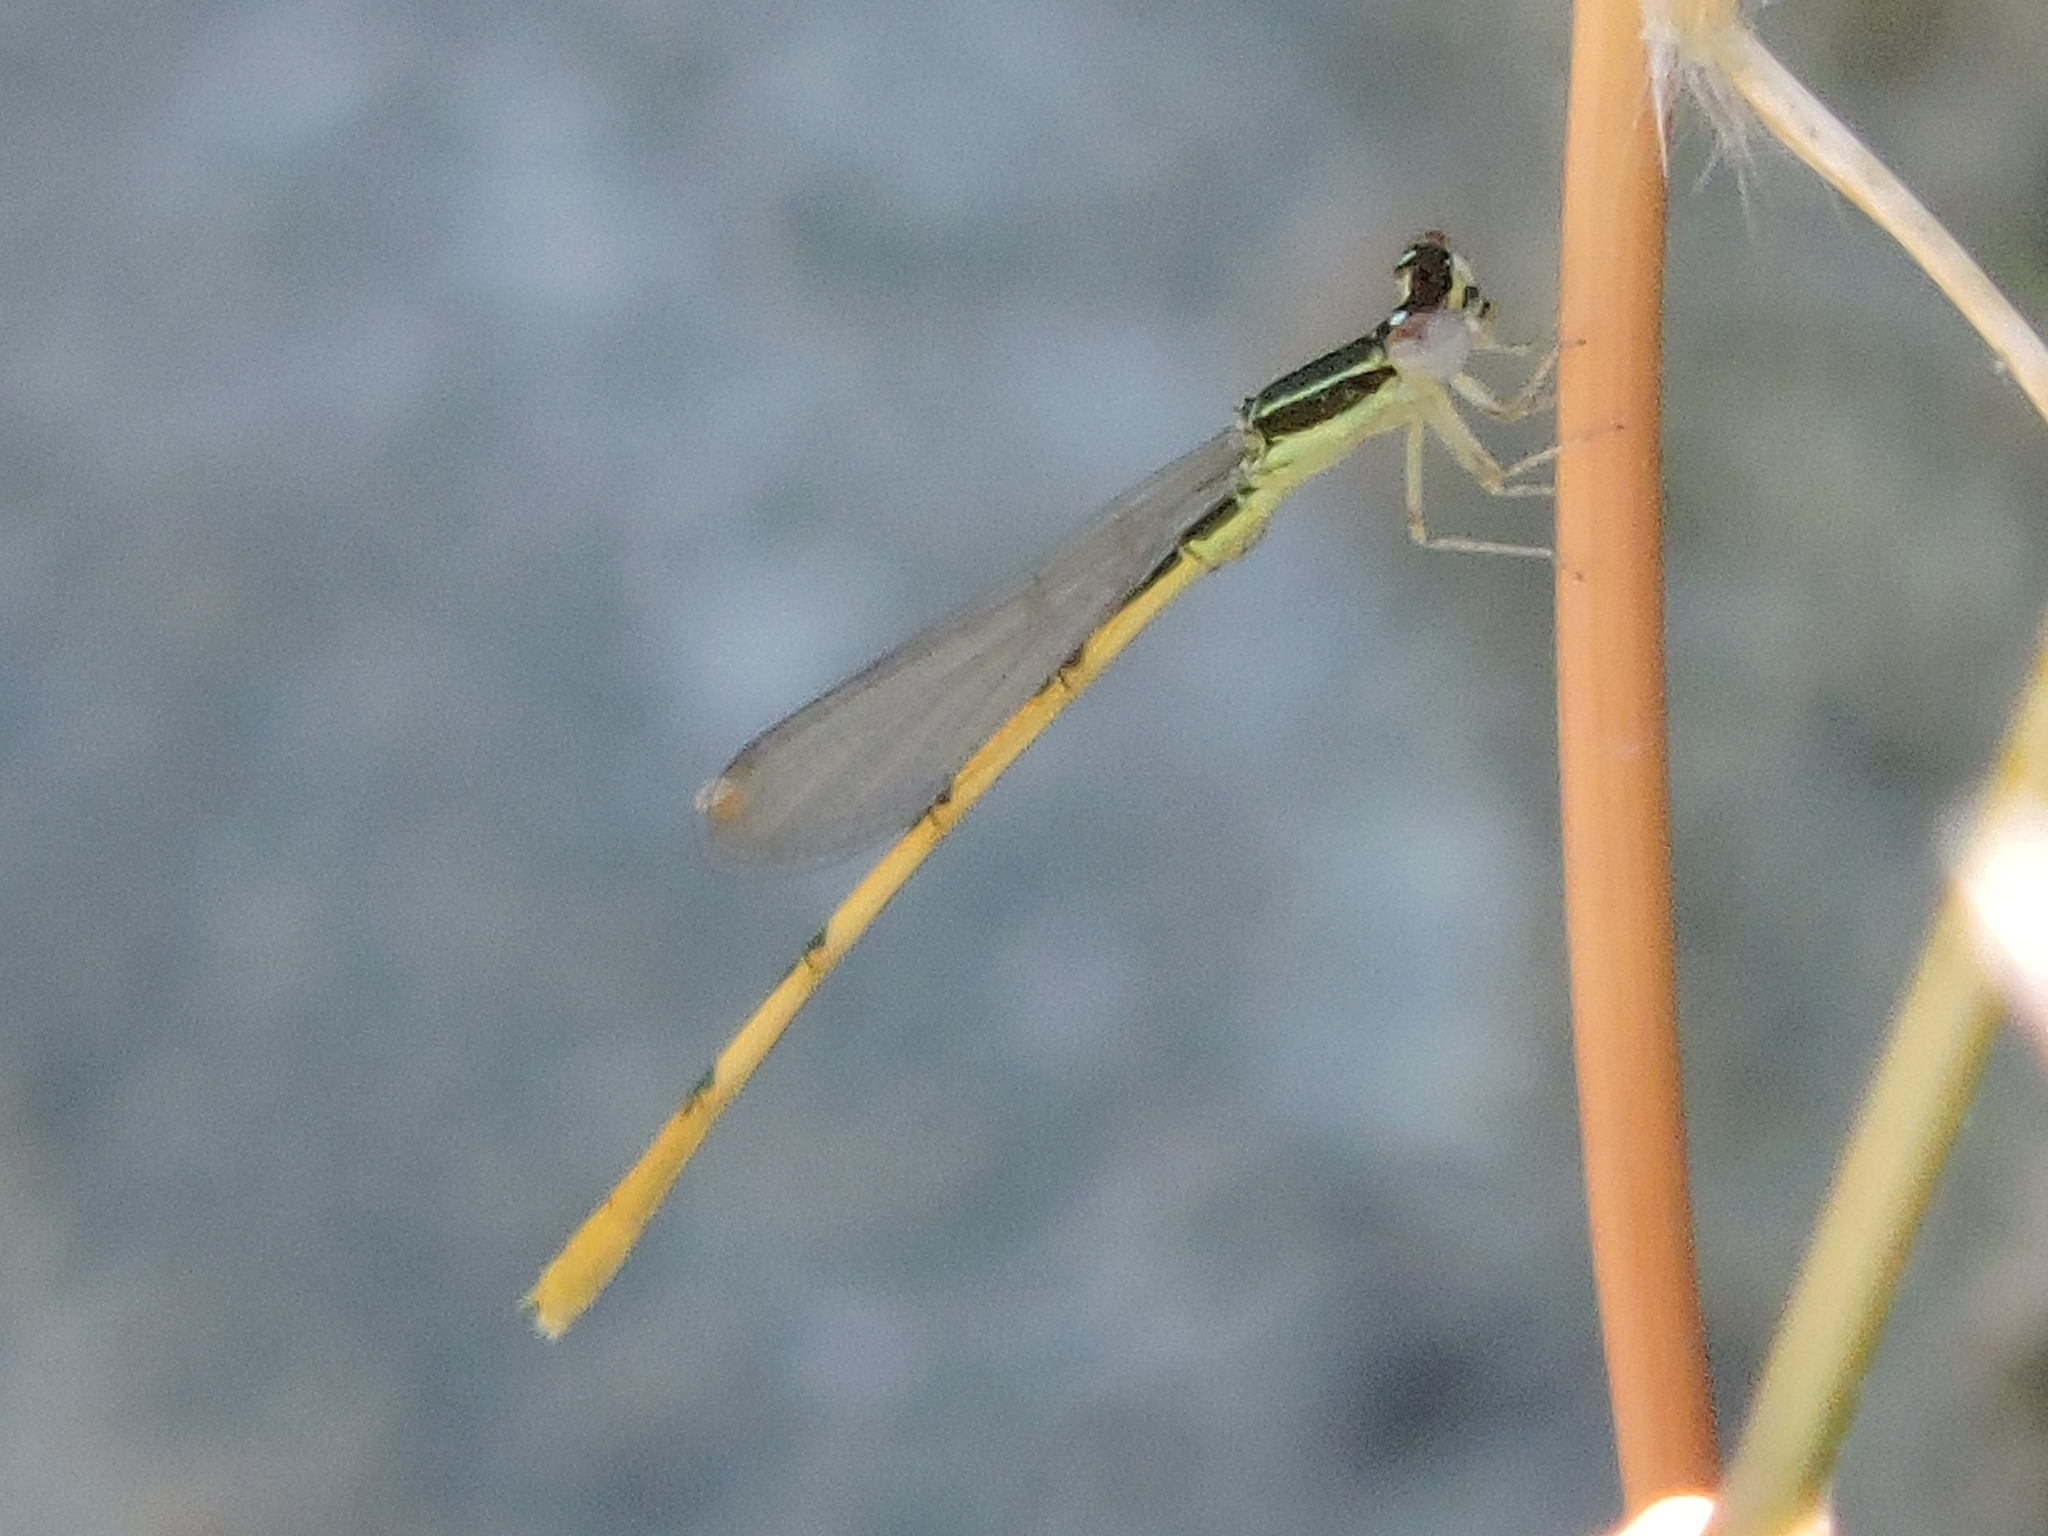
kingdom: Animalia
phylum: Arthropoda
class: Insecta
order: Odonata
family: Coenagrionidae
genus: Ischnura
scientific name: Ischnura hastata
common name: Citrine forktail
